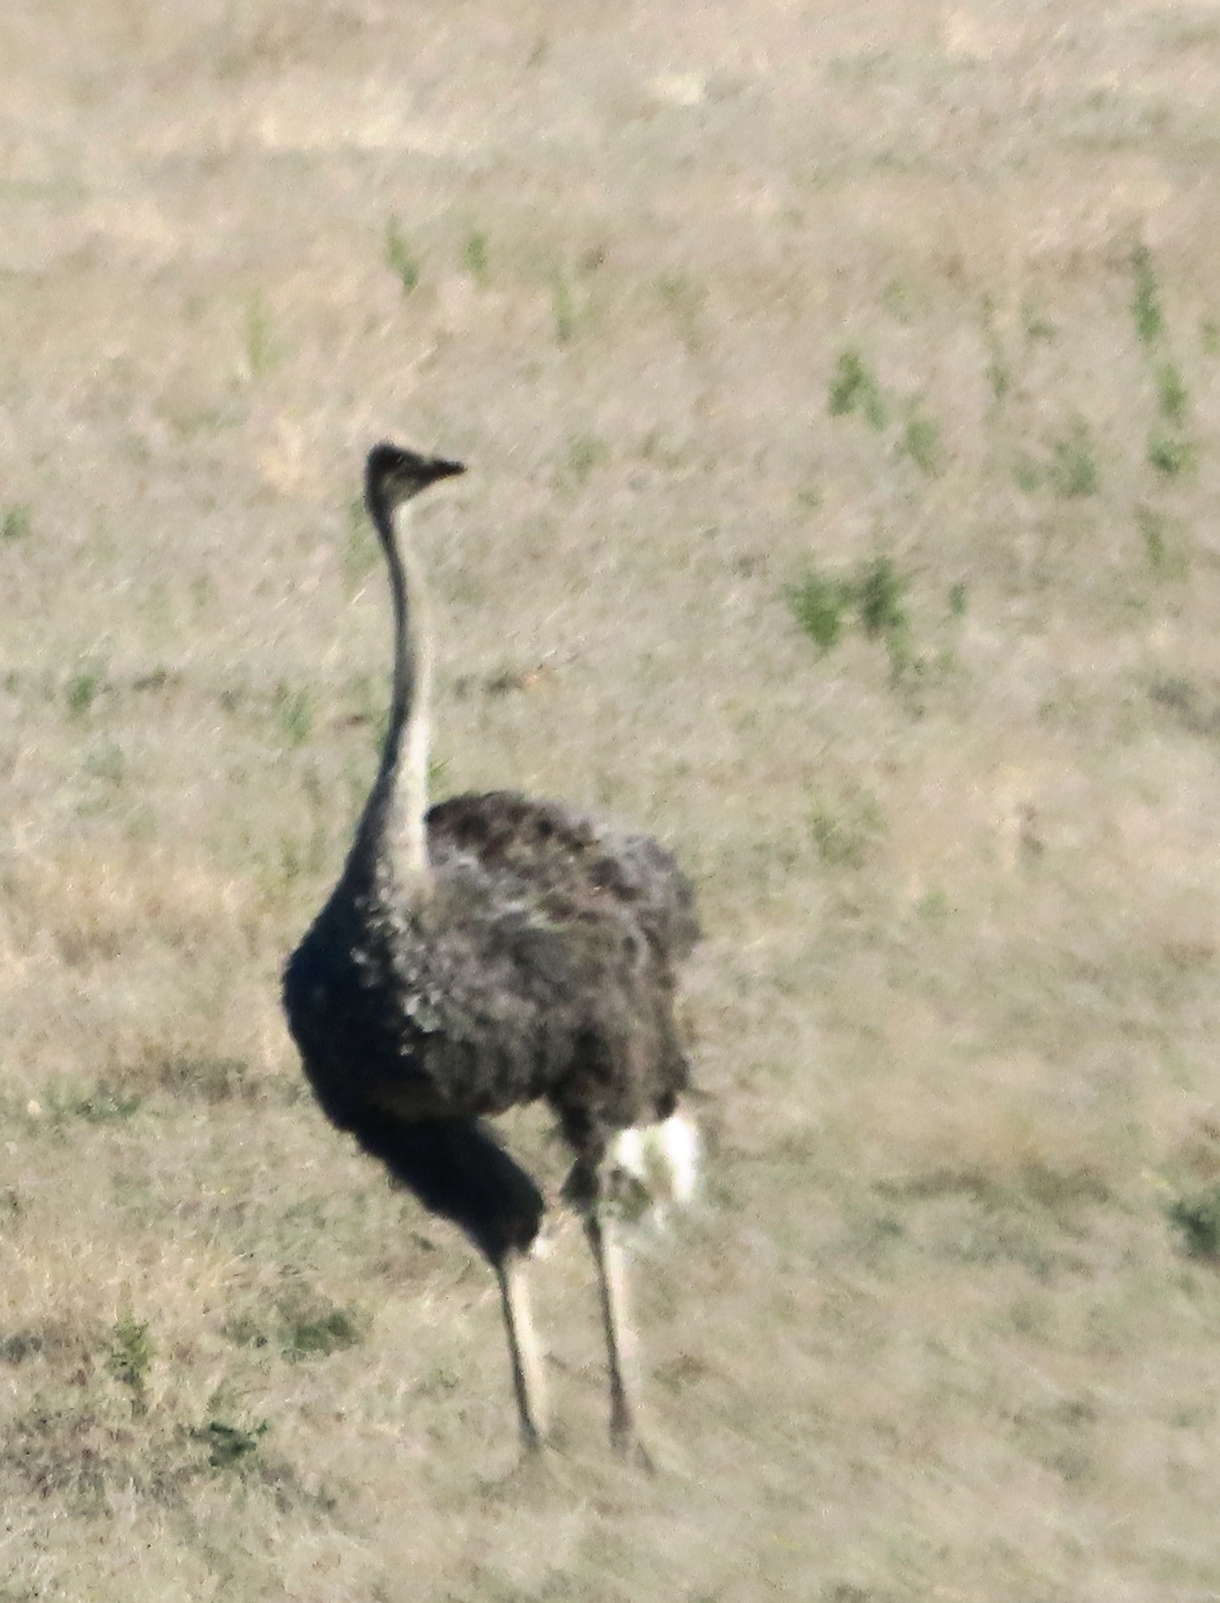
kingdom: Animalia
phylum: Chordata
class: Aves
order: Struthioniformes
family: Struthionidae
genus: Struthio
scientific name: Struthio camelus
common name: Common ostrich
